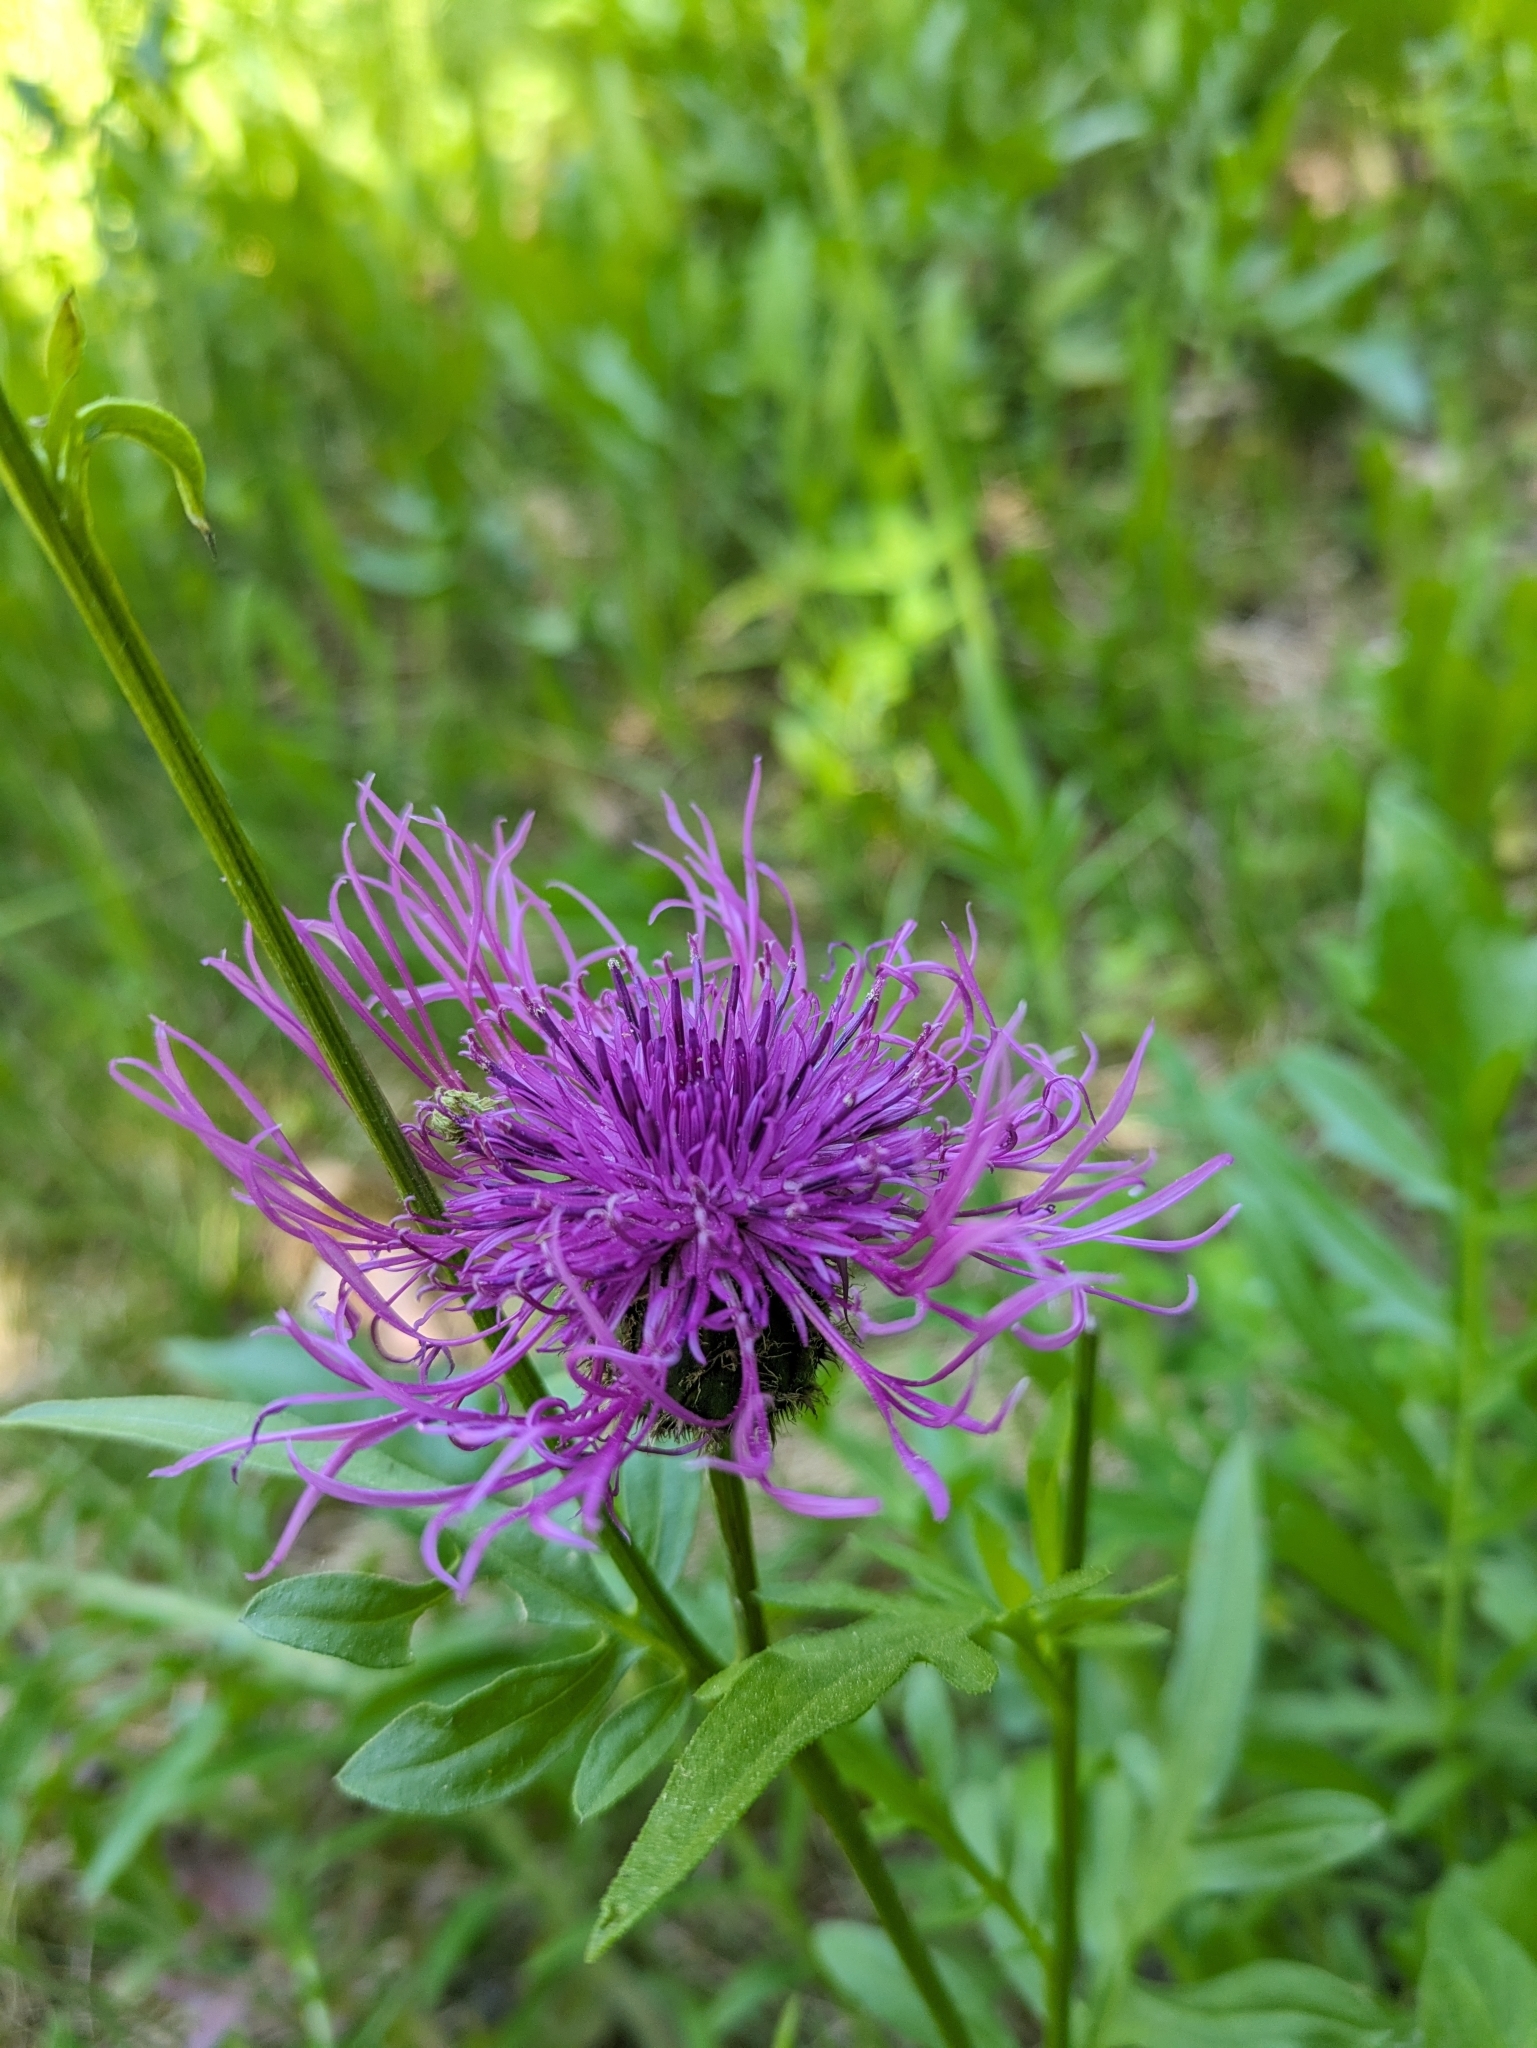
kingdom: Plantae
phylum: Tracheophyta
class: Magnoliopsida
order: Asterales
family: Asteraceae
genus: Centaurea
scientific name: Centaurea scabiosa
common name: Greater knapweed
